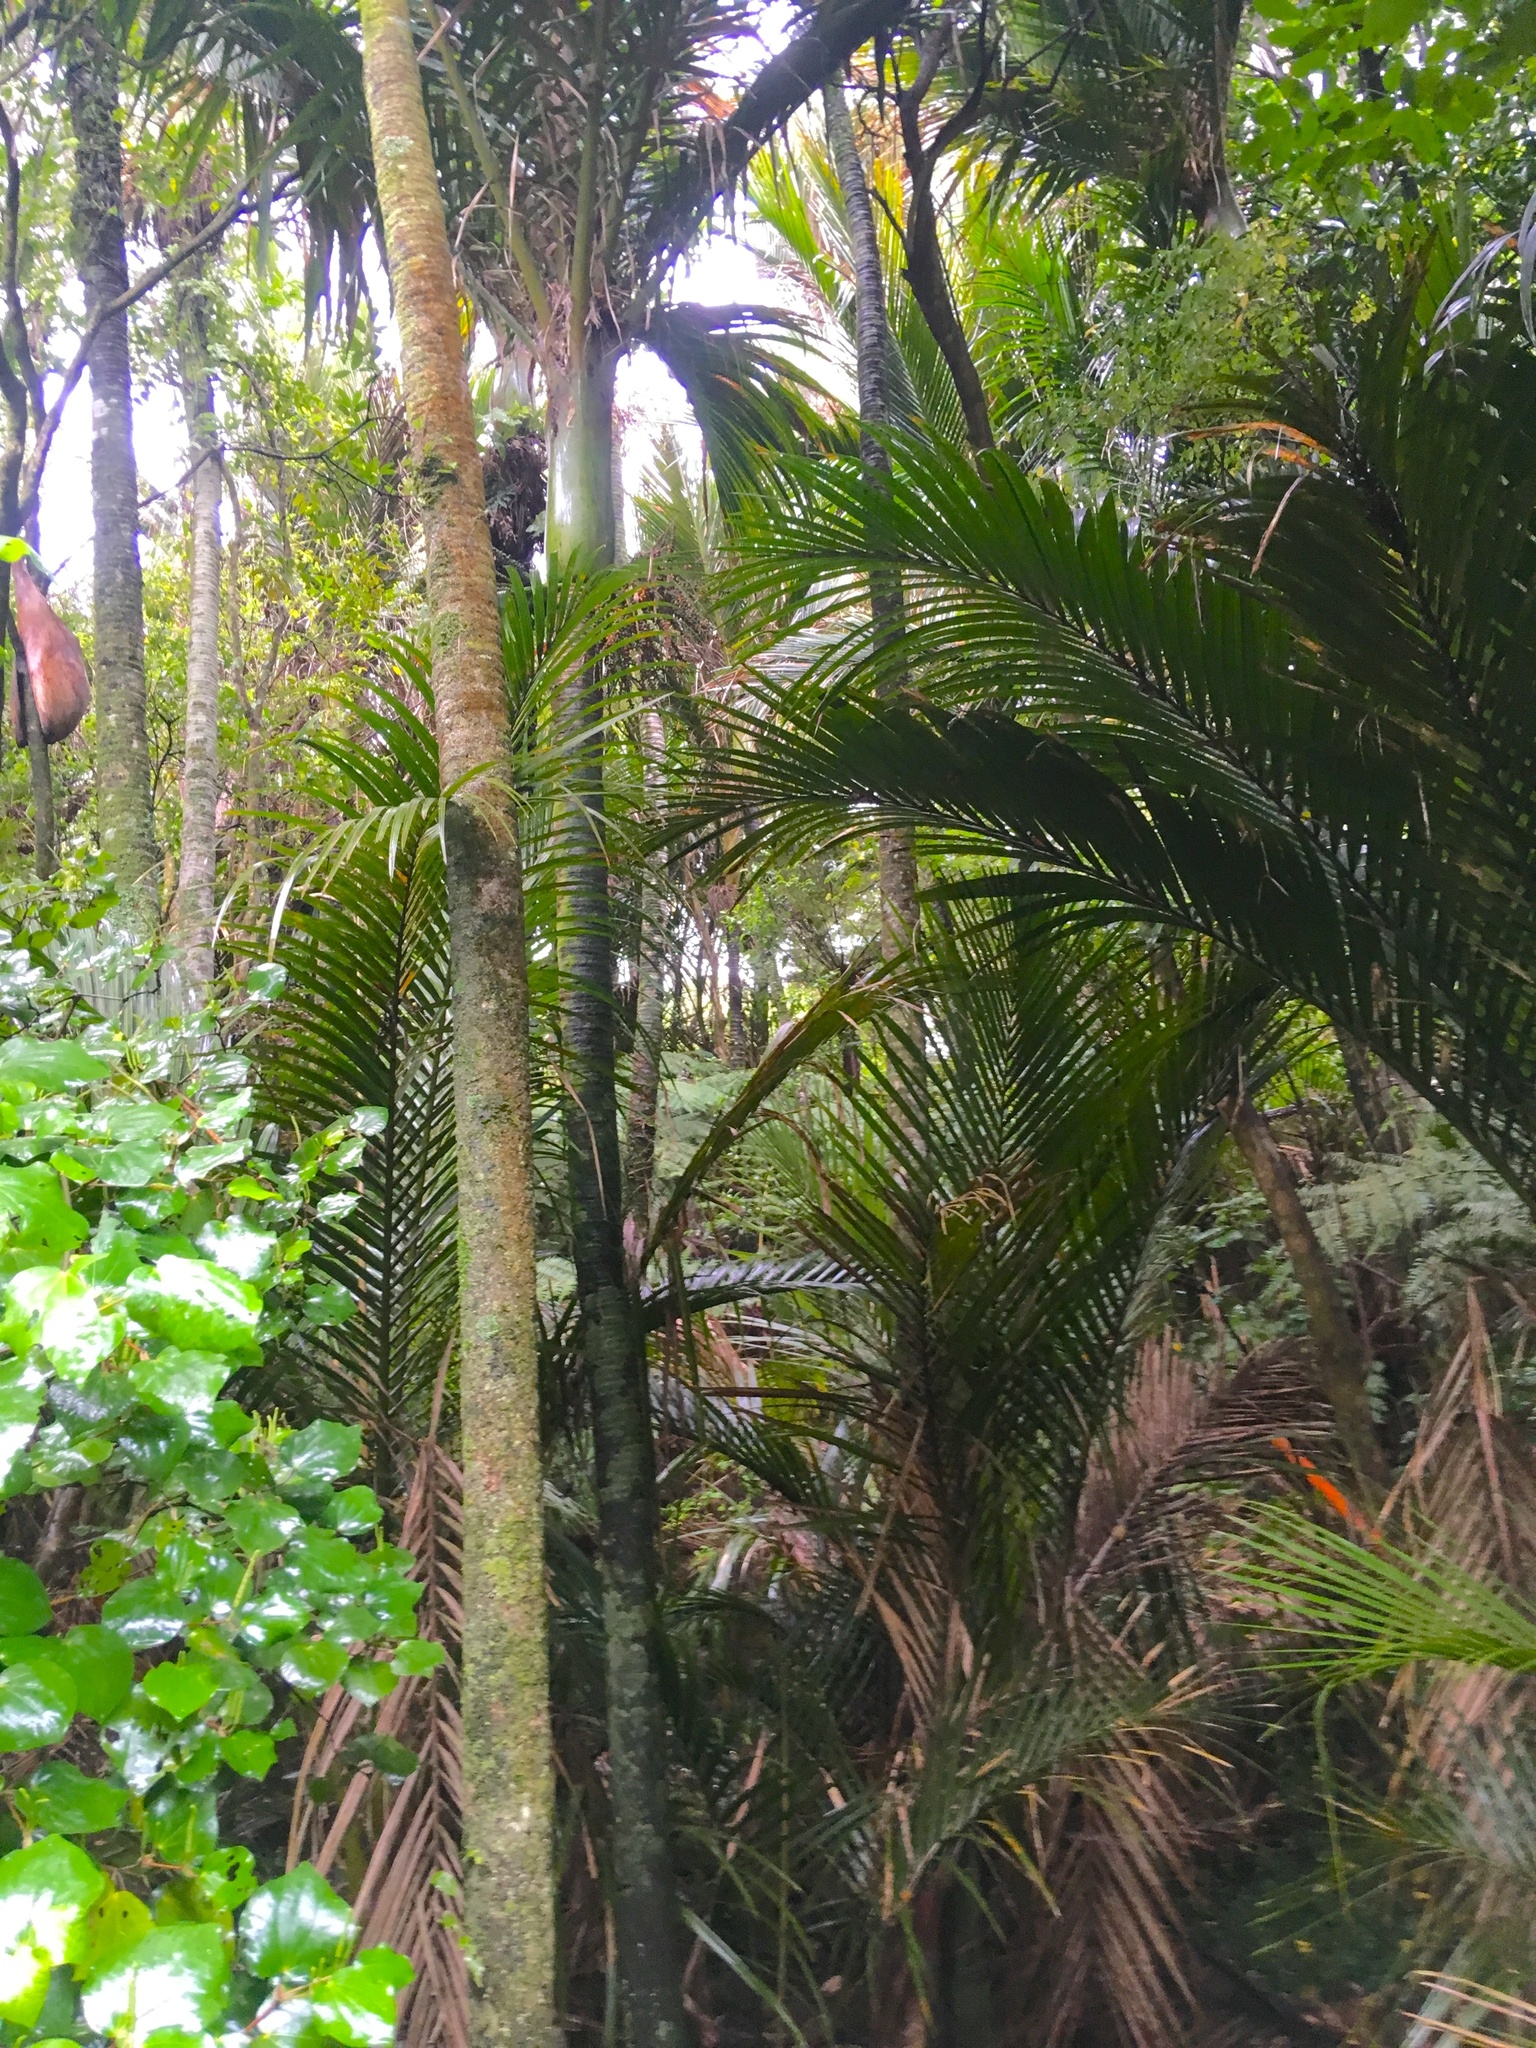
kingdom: Plantae
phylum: Tracheophyta
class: Liliopsida
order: Arecales
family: Arecaceae
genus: Rhopalostylis
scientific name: Rhopalostylis sapida
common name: Feather-duster palm
